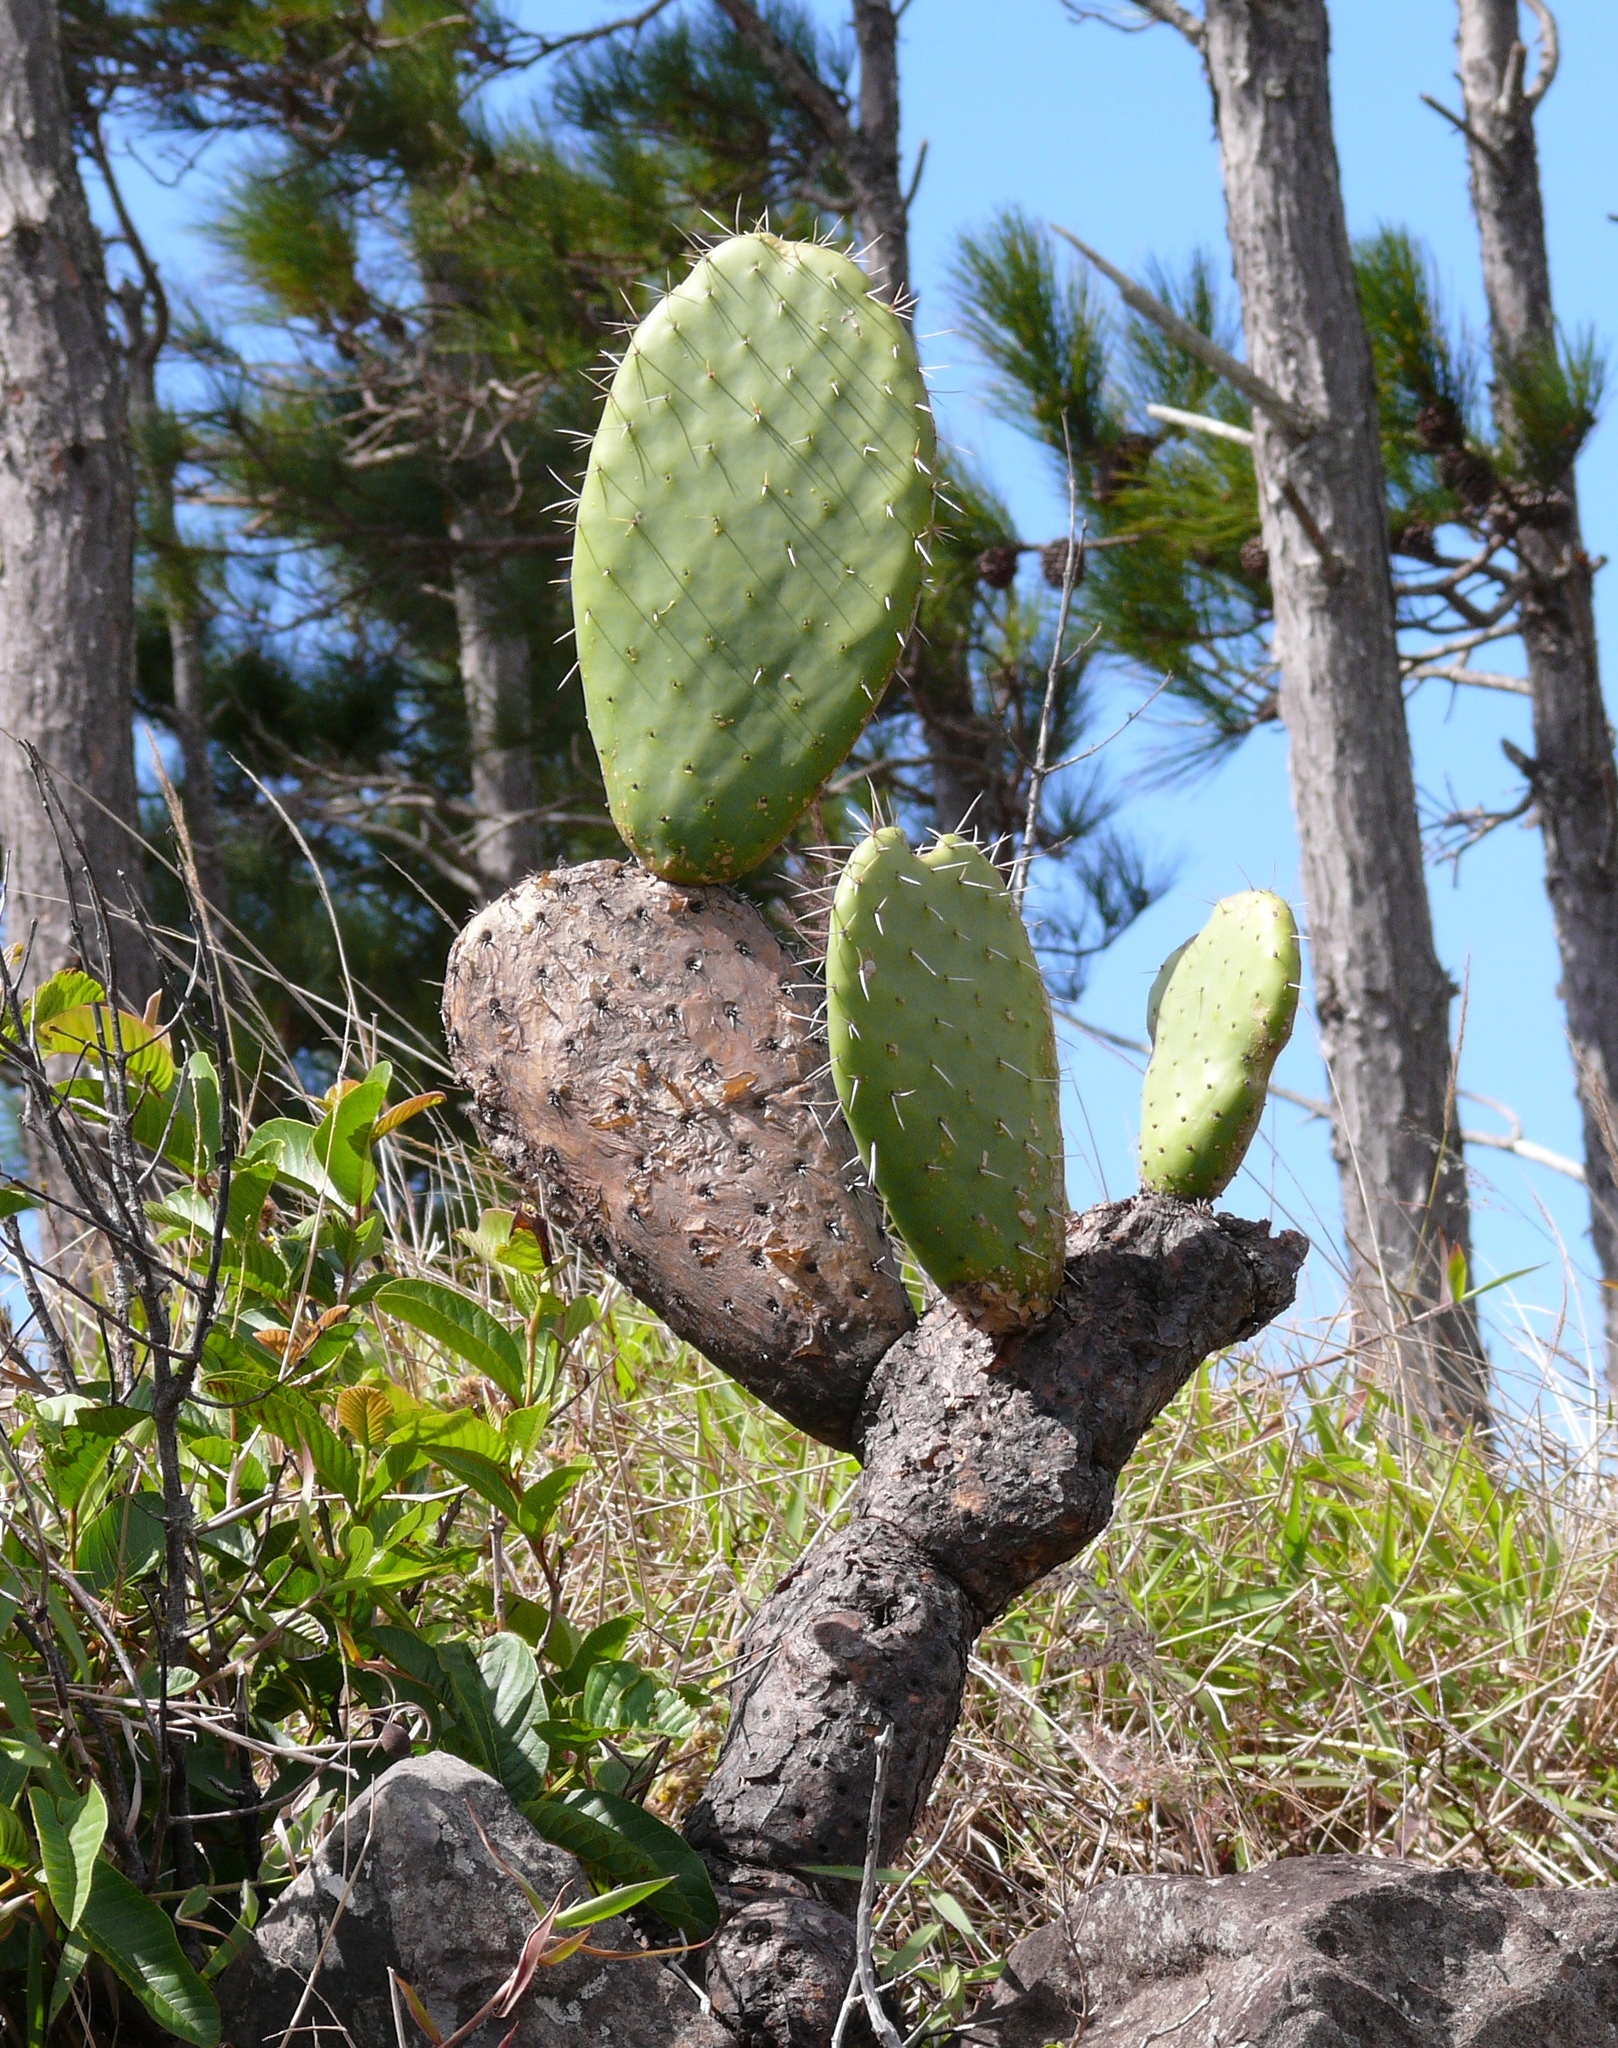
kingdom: Plantae
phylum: Tracheophyta
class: Magnoliopsida
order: Caryophyllales
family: Cactaceae
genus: Opuntia
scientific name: Opuntia ficus-indica
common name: Barbary fig
